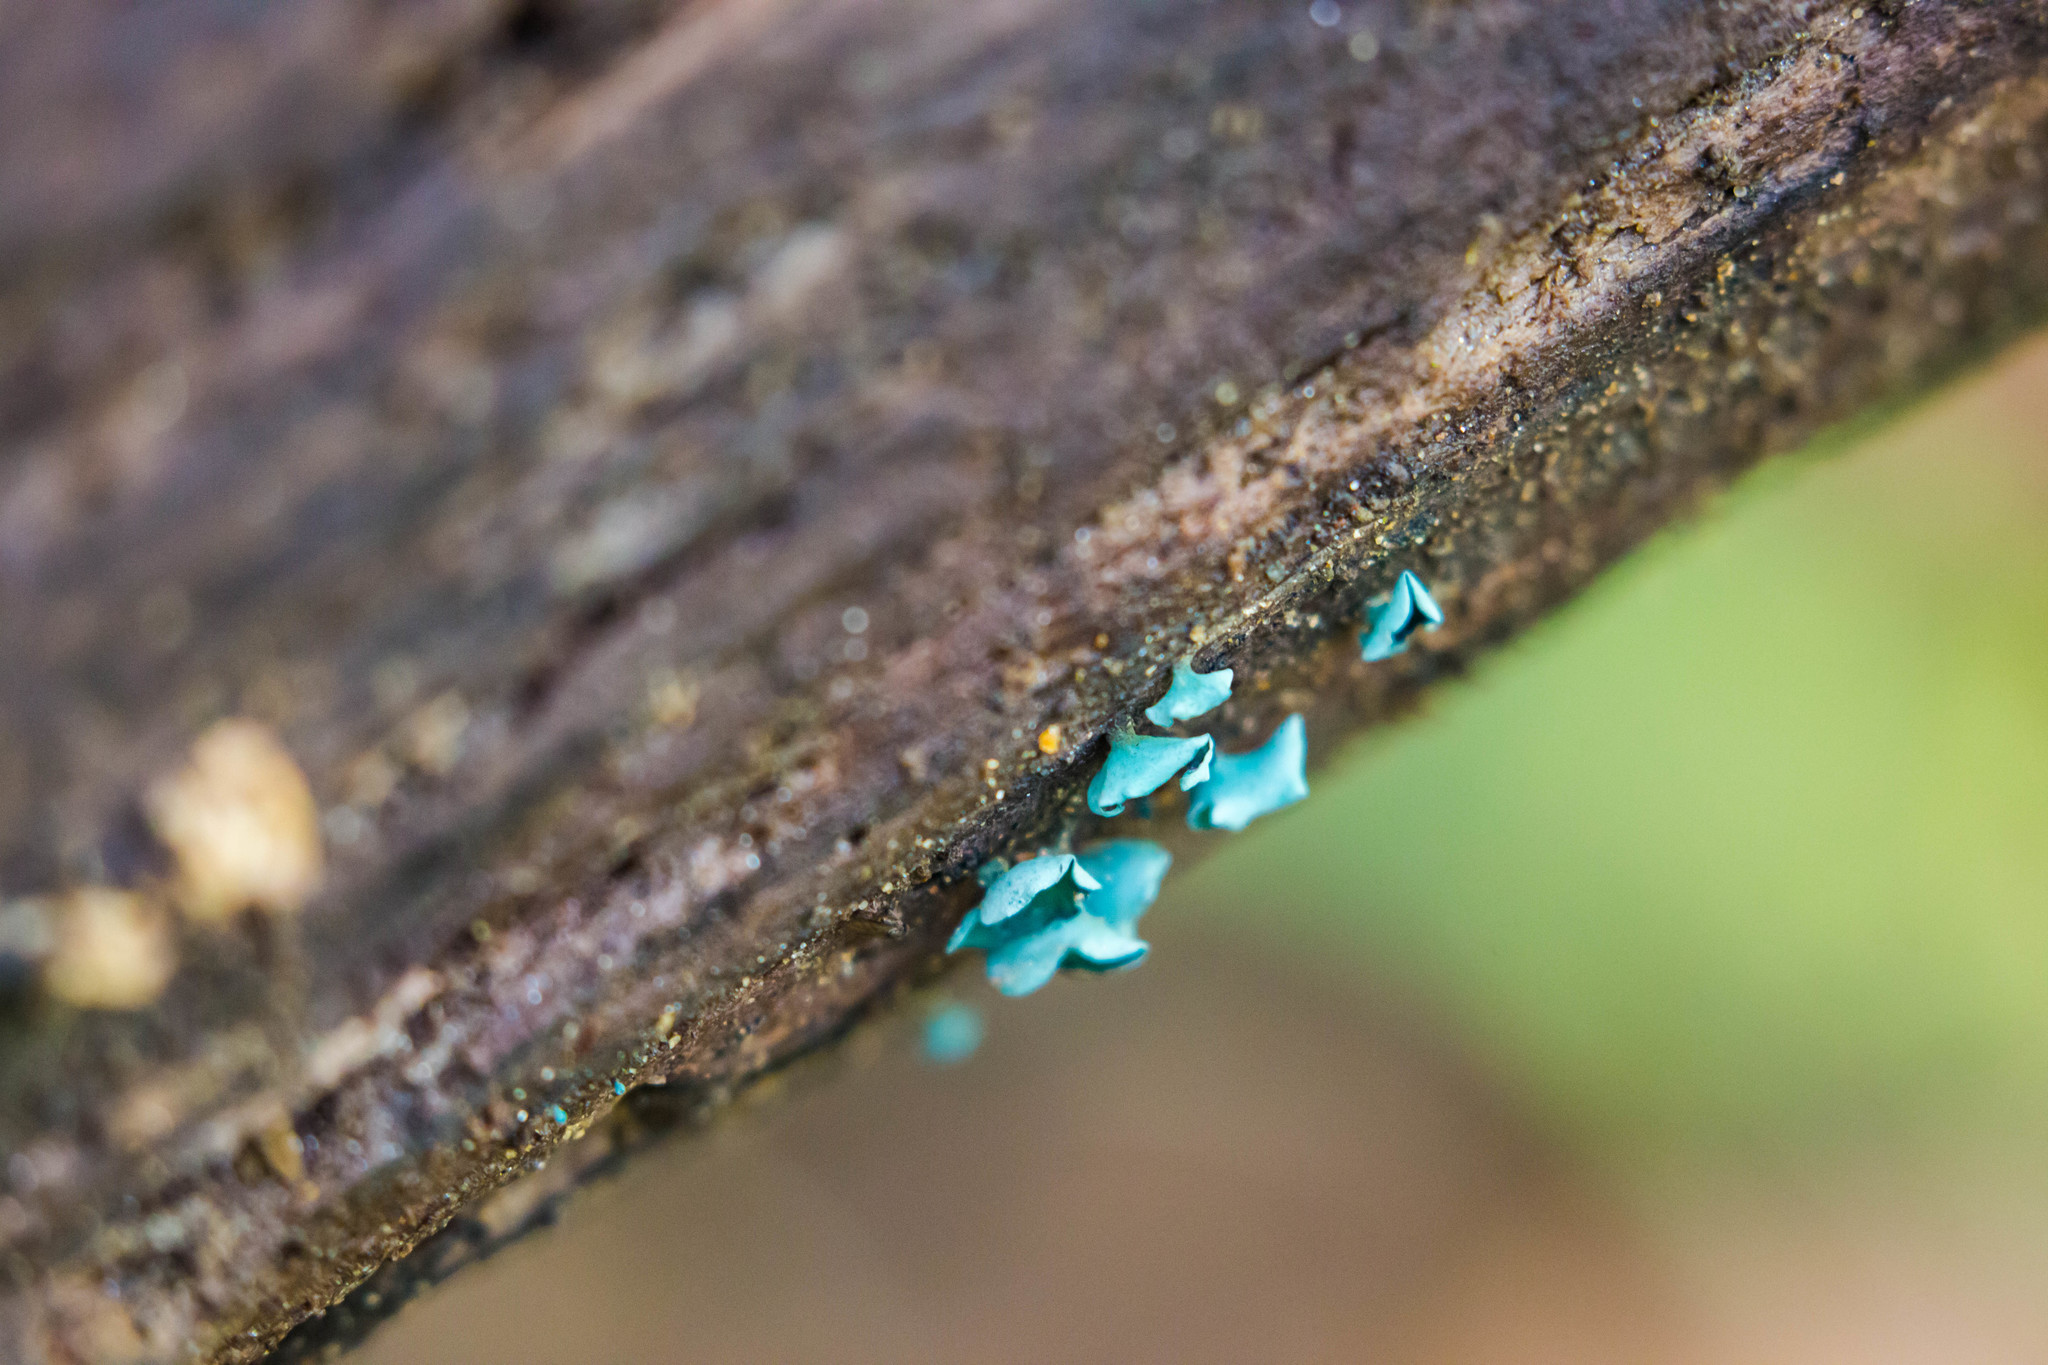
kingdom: Fungi
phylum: Ascomycota
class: Leotiomycetes
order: Helotiales
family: Chlorociboriaceae
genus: Chlorociboria
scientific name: Chlorociboria aeruginascens
